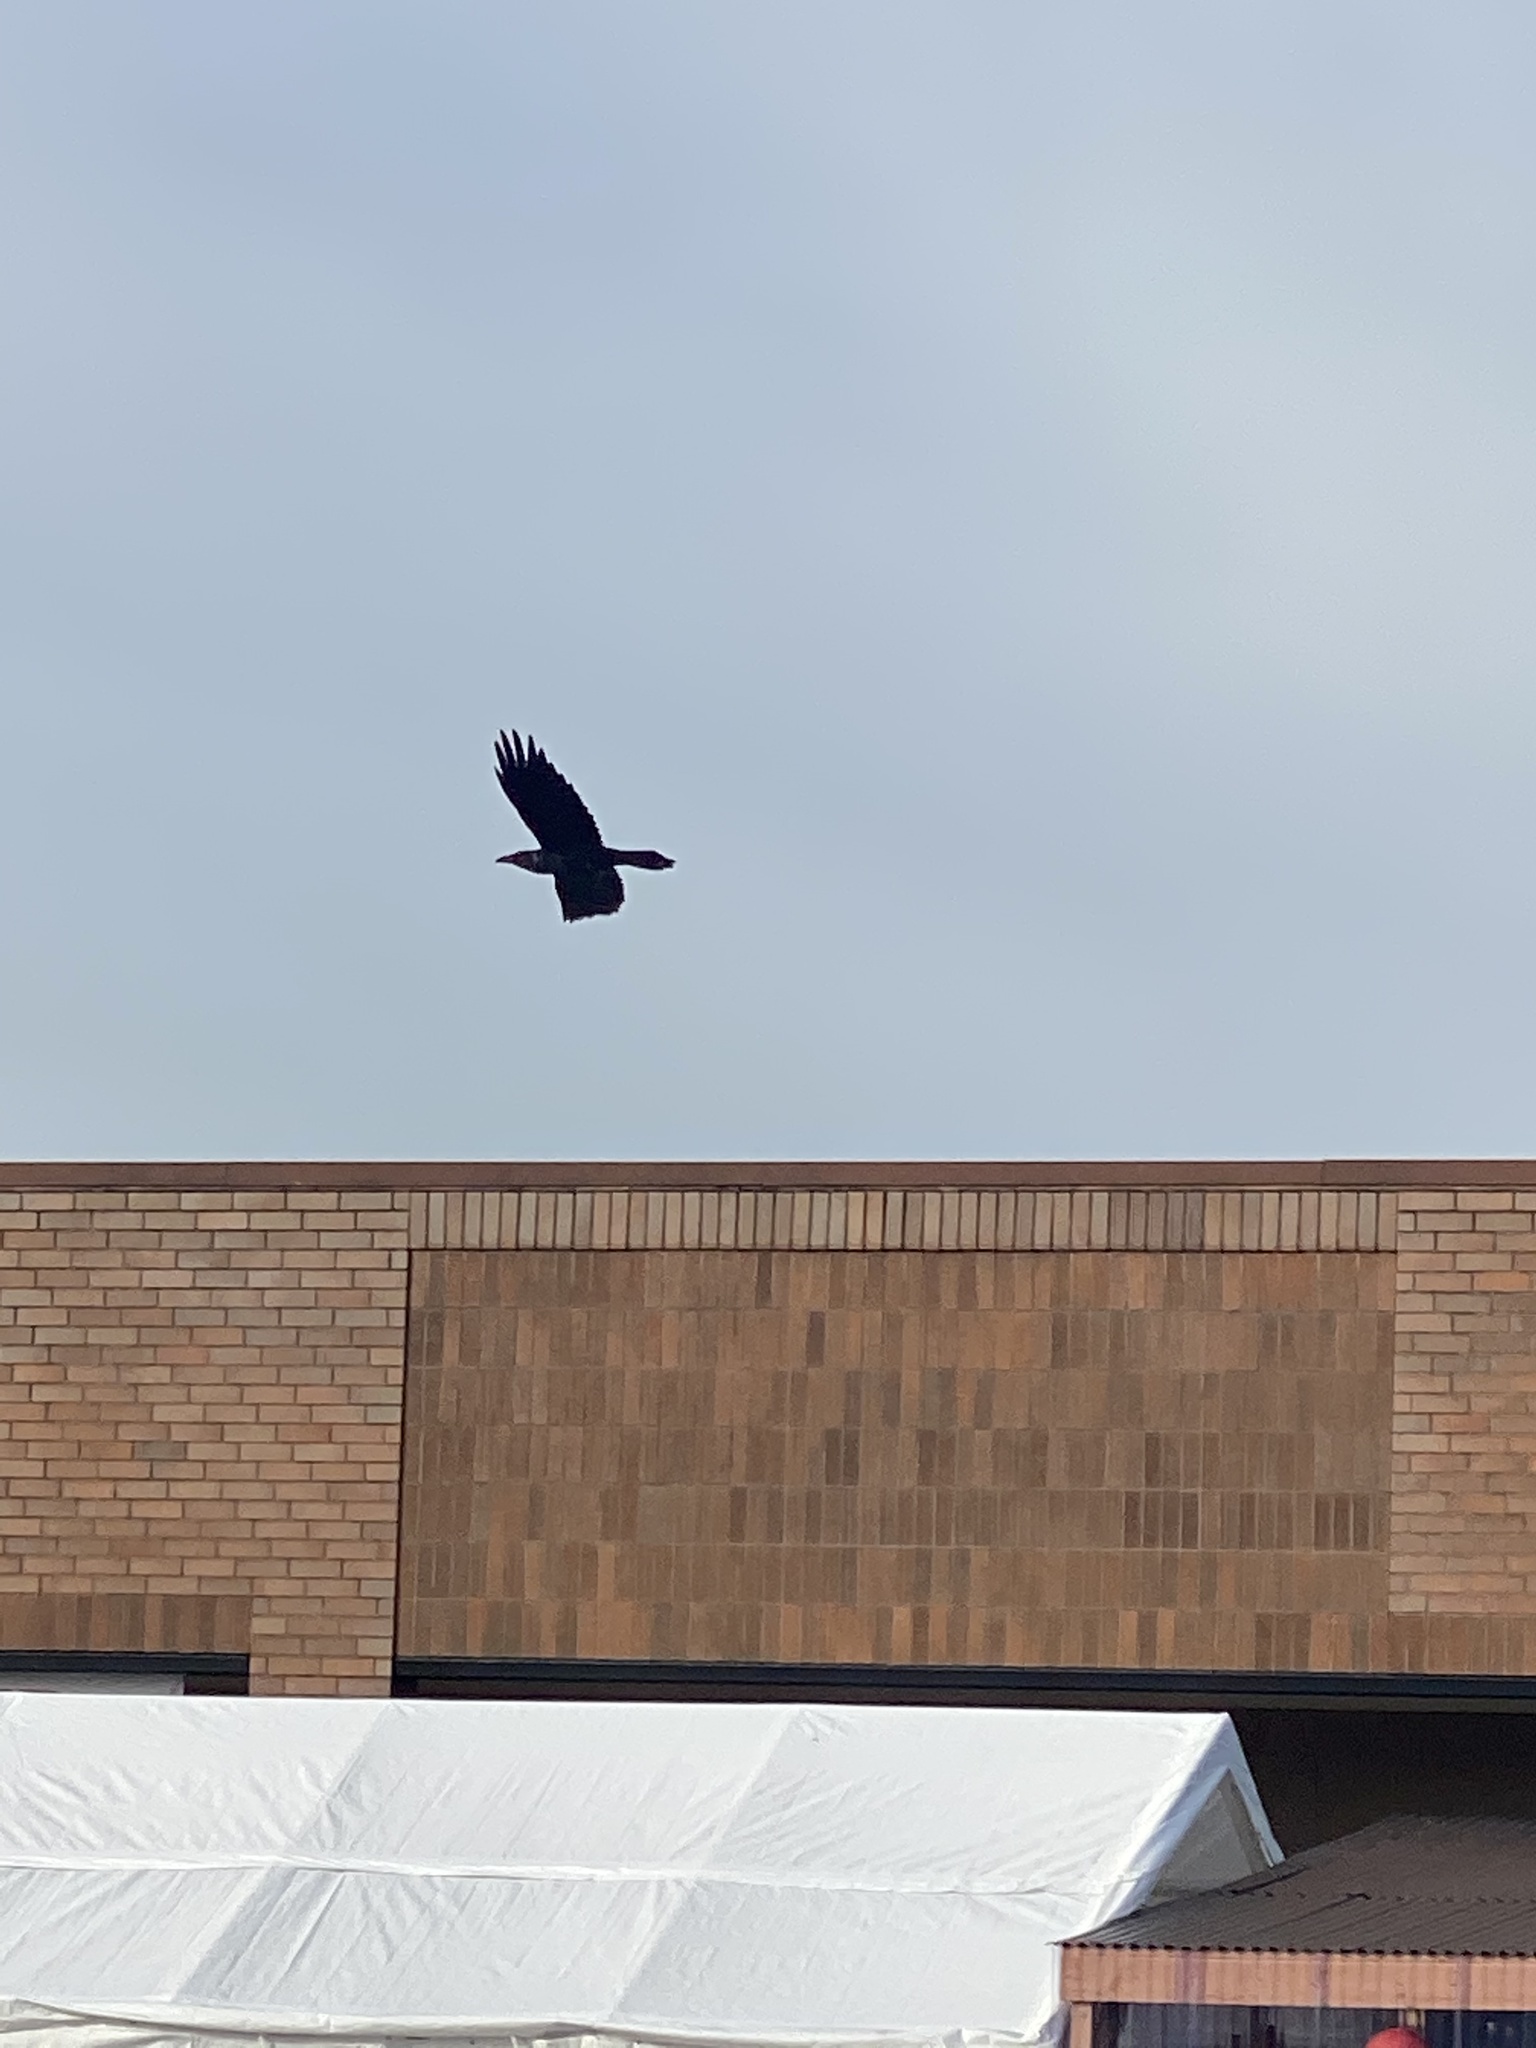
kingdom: Animalia
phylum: Chordata
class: Aves
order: Passeriformes
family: Corvidae
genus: Corvus
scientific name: Corvus corax
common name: Common raven
